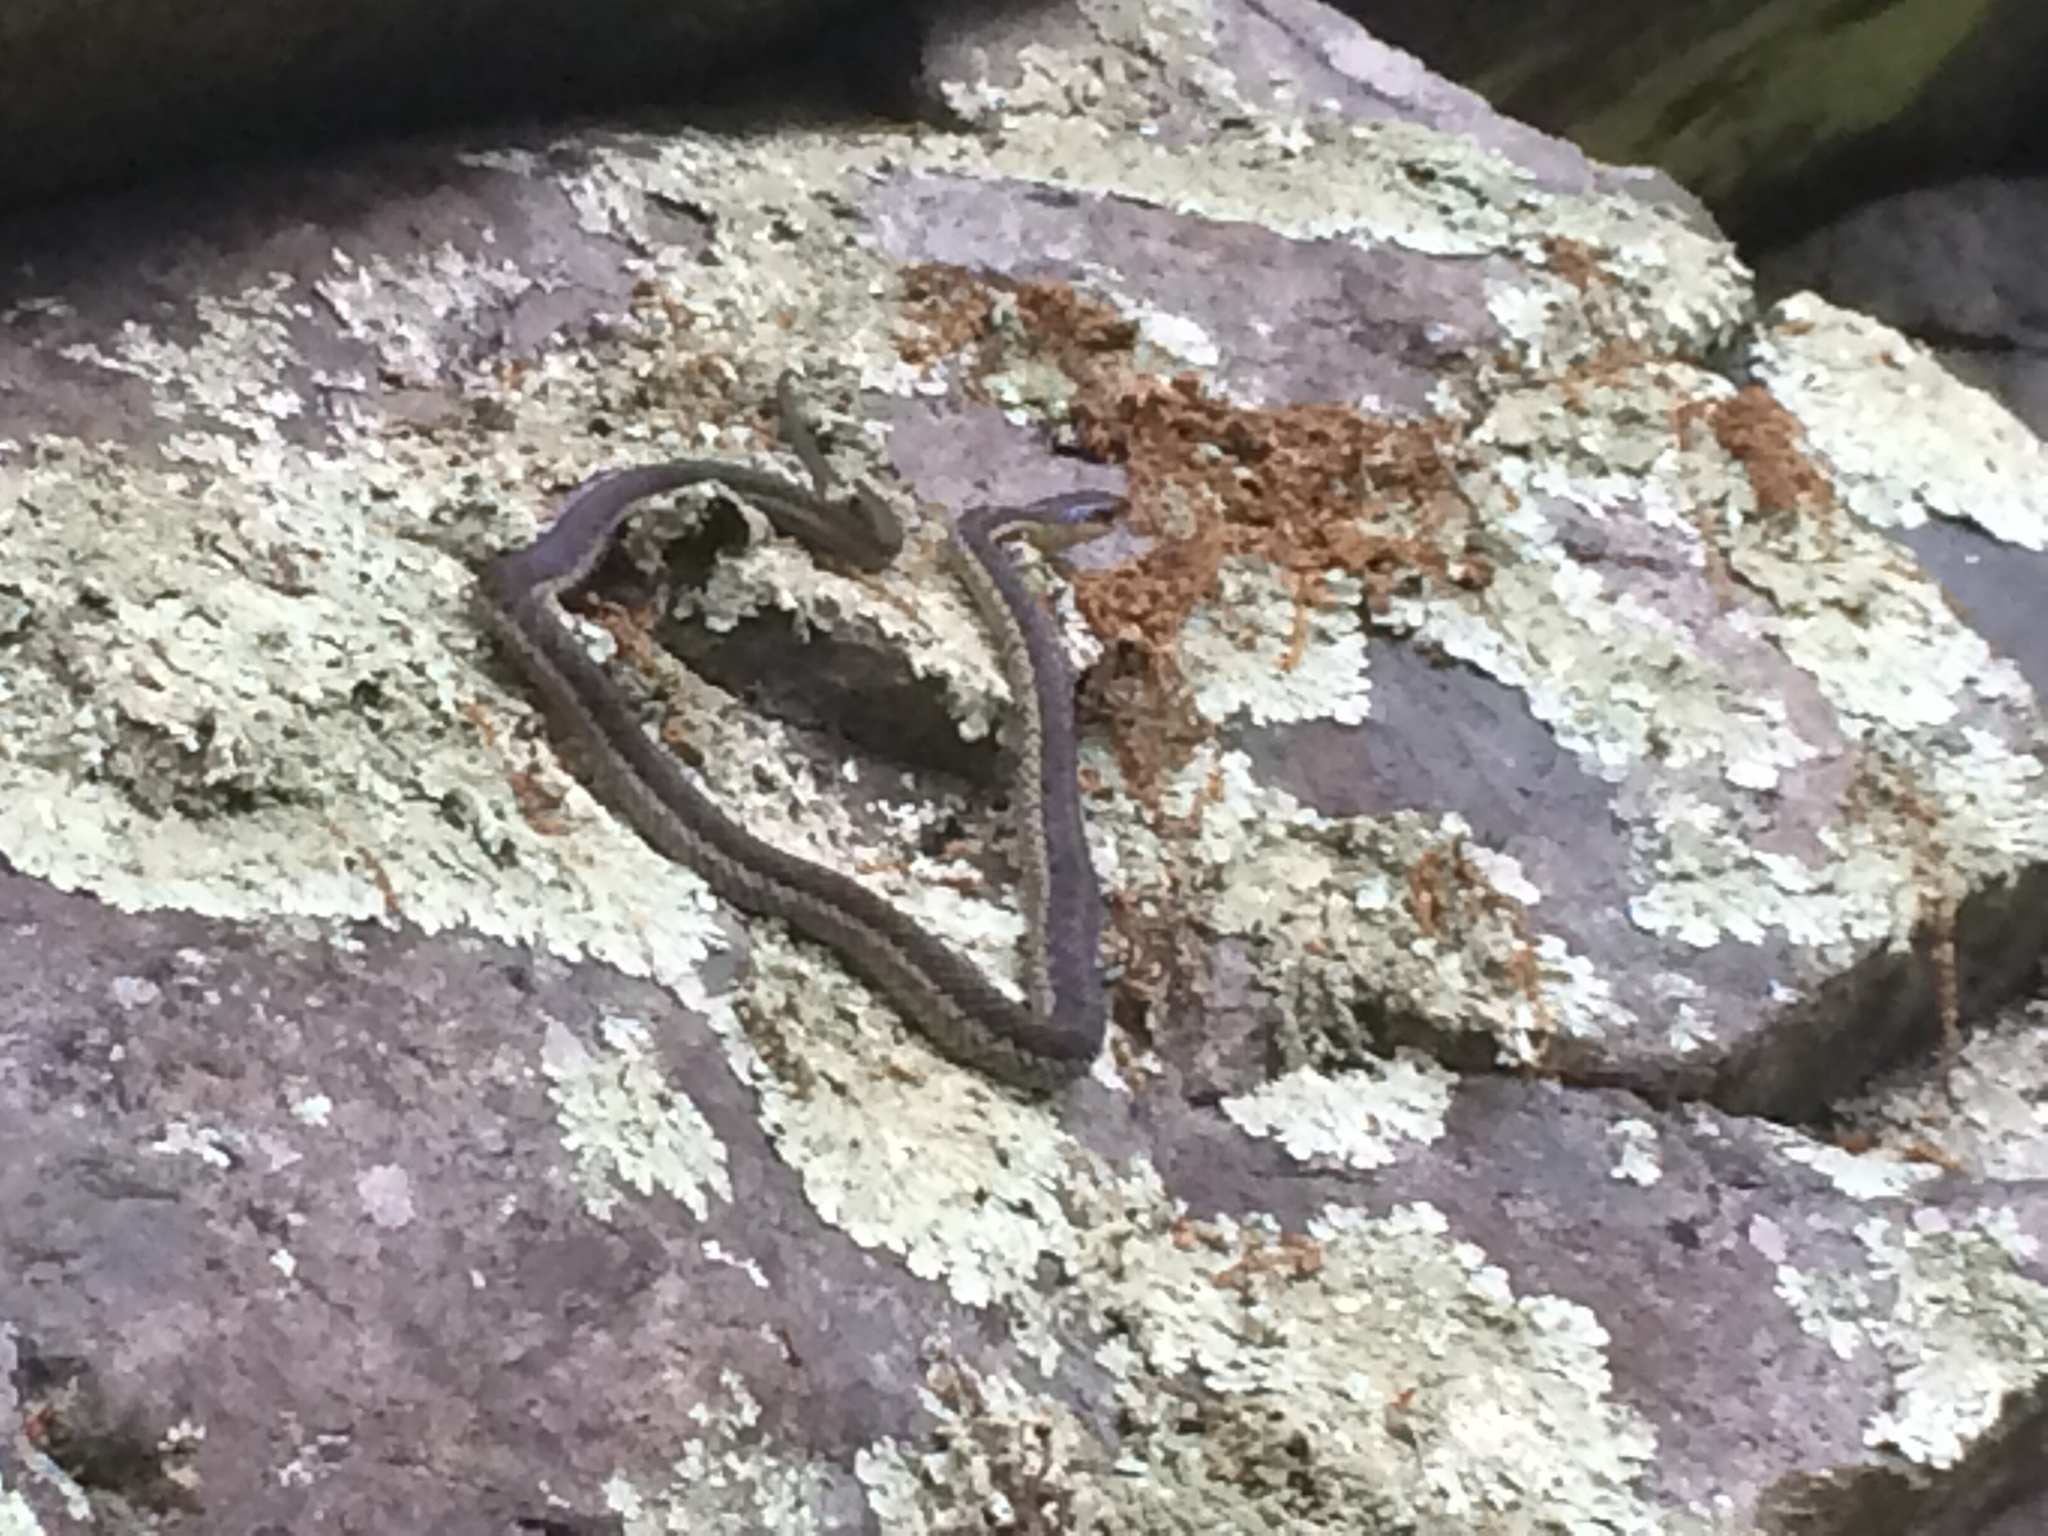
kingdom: Animalia
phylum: Chordata
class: Squamata
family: Colubridae
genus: Thamnophis
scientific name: Thamnophis sirtalis
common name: Common garter snake
